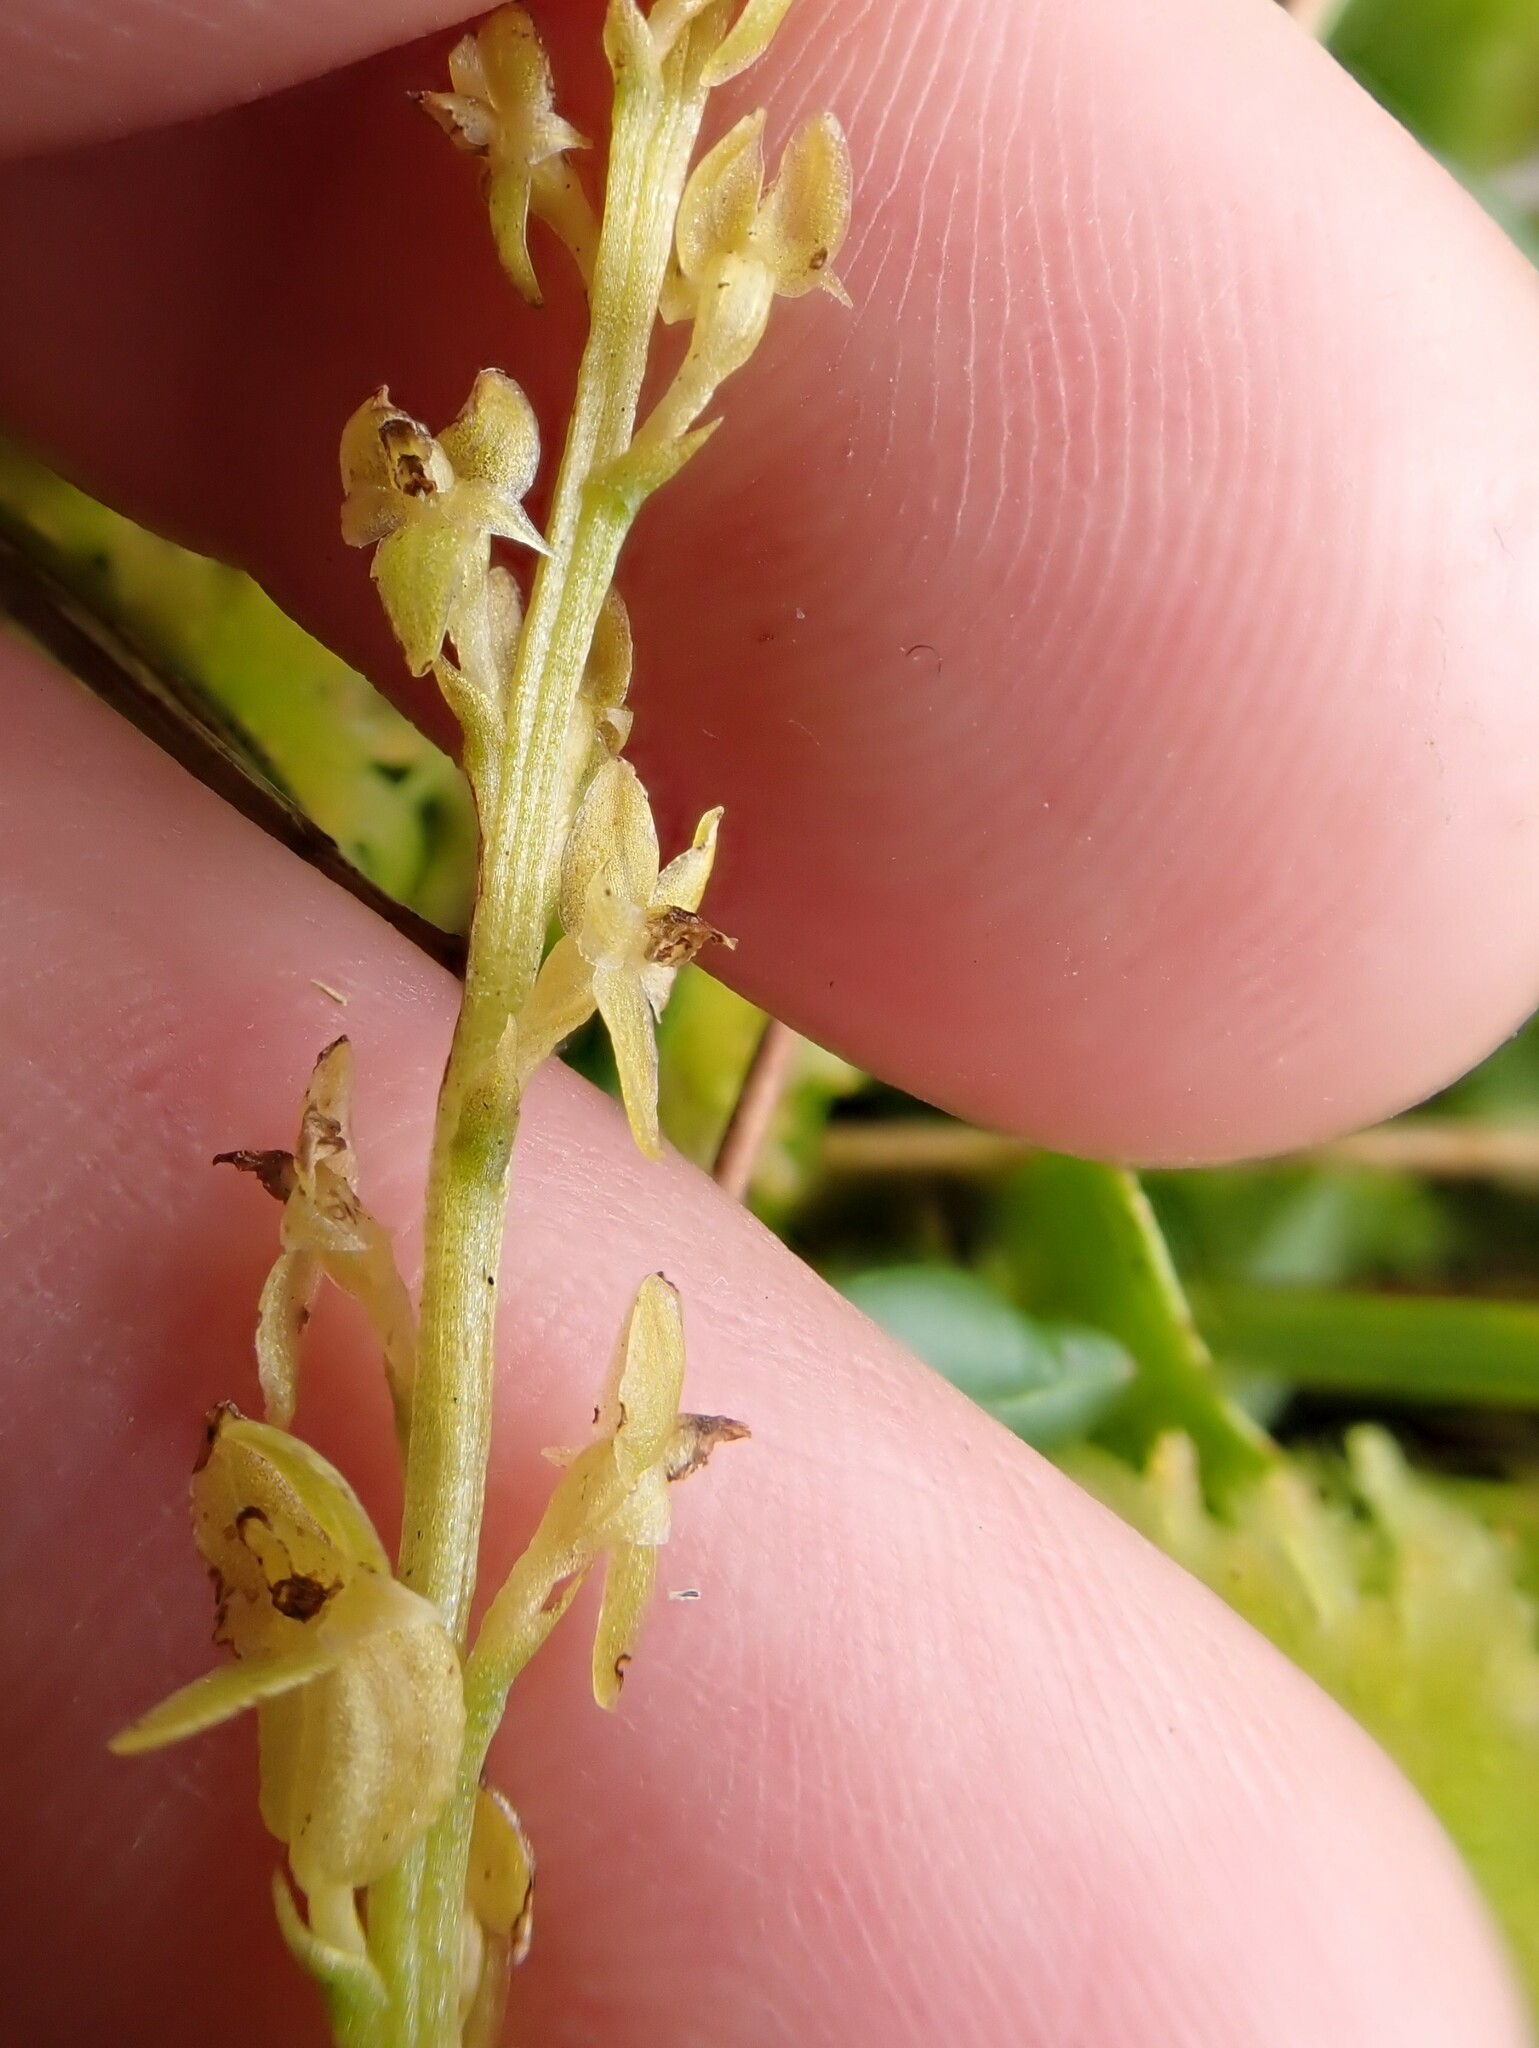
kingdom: Plantae
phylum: Tracheophyta
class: Liliopsida
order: Asparagales
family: Orchidaceae
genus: Hammarbya
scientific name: Hammarbya paludosa
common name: Bog orchid
